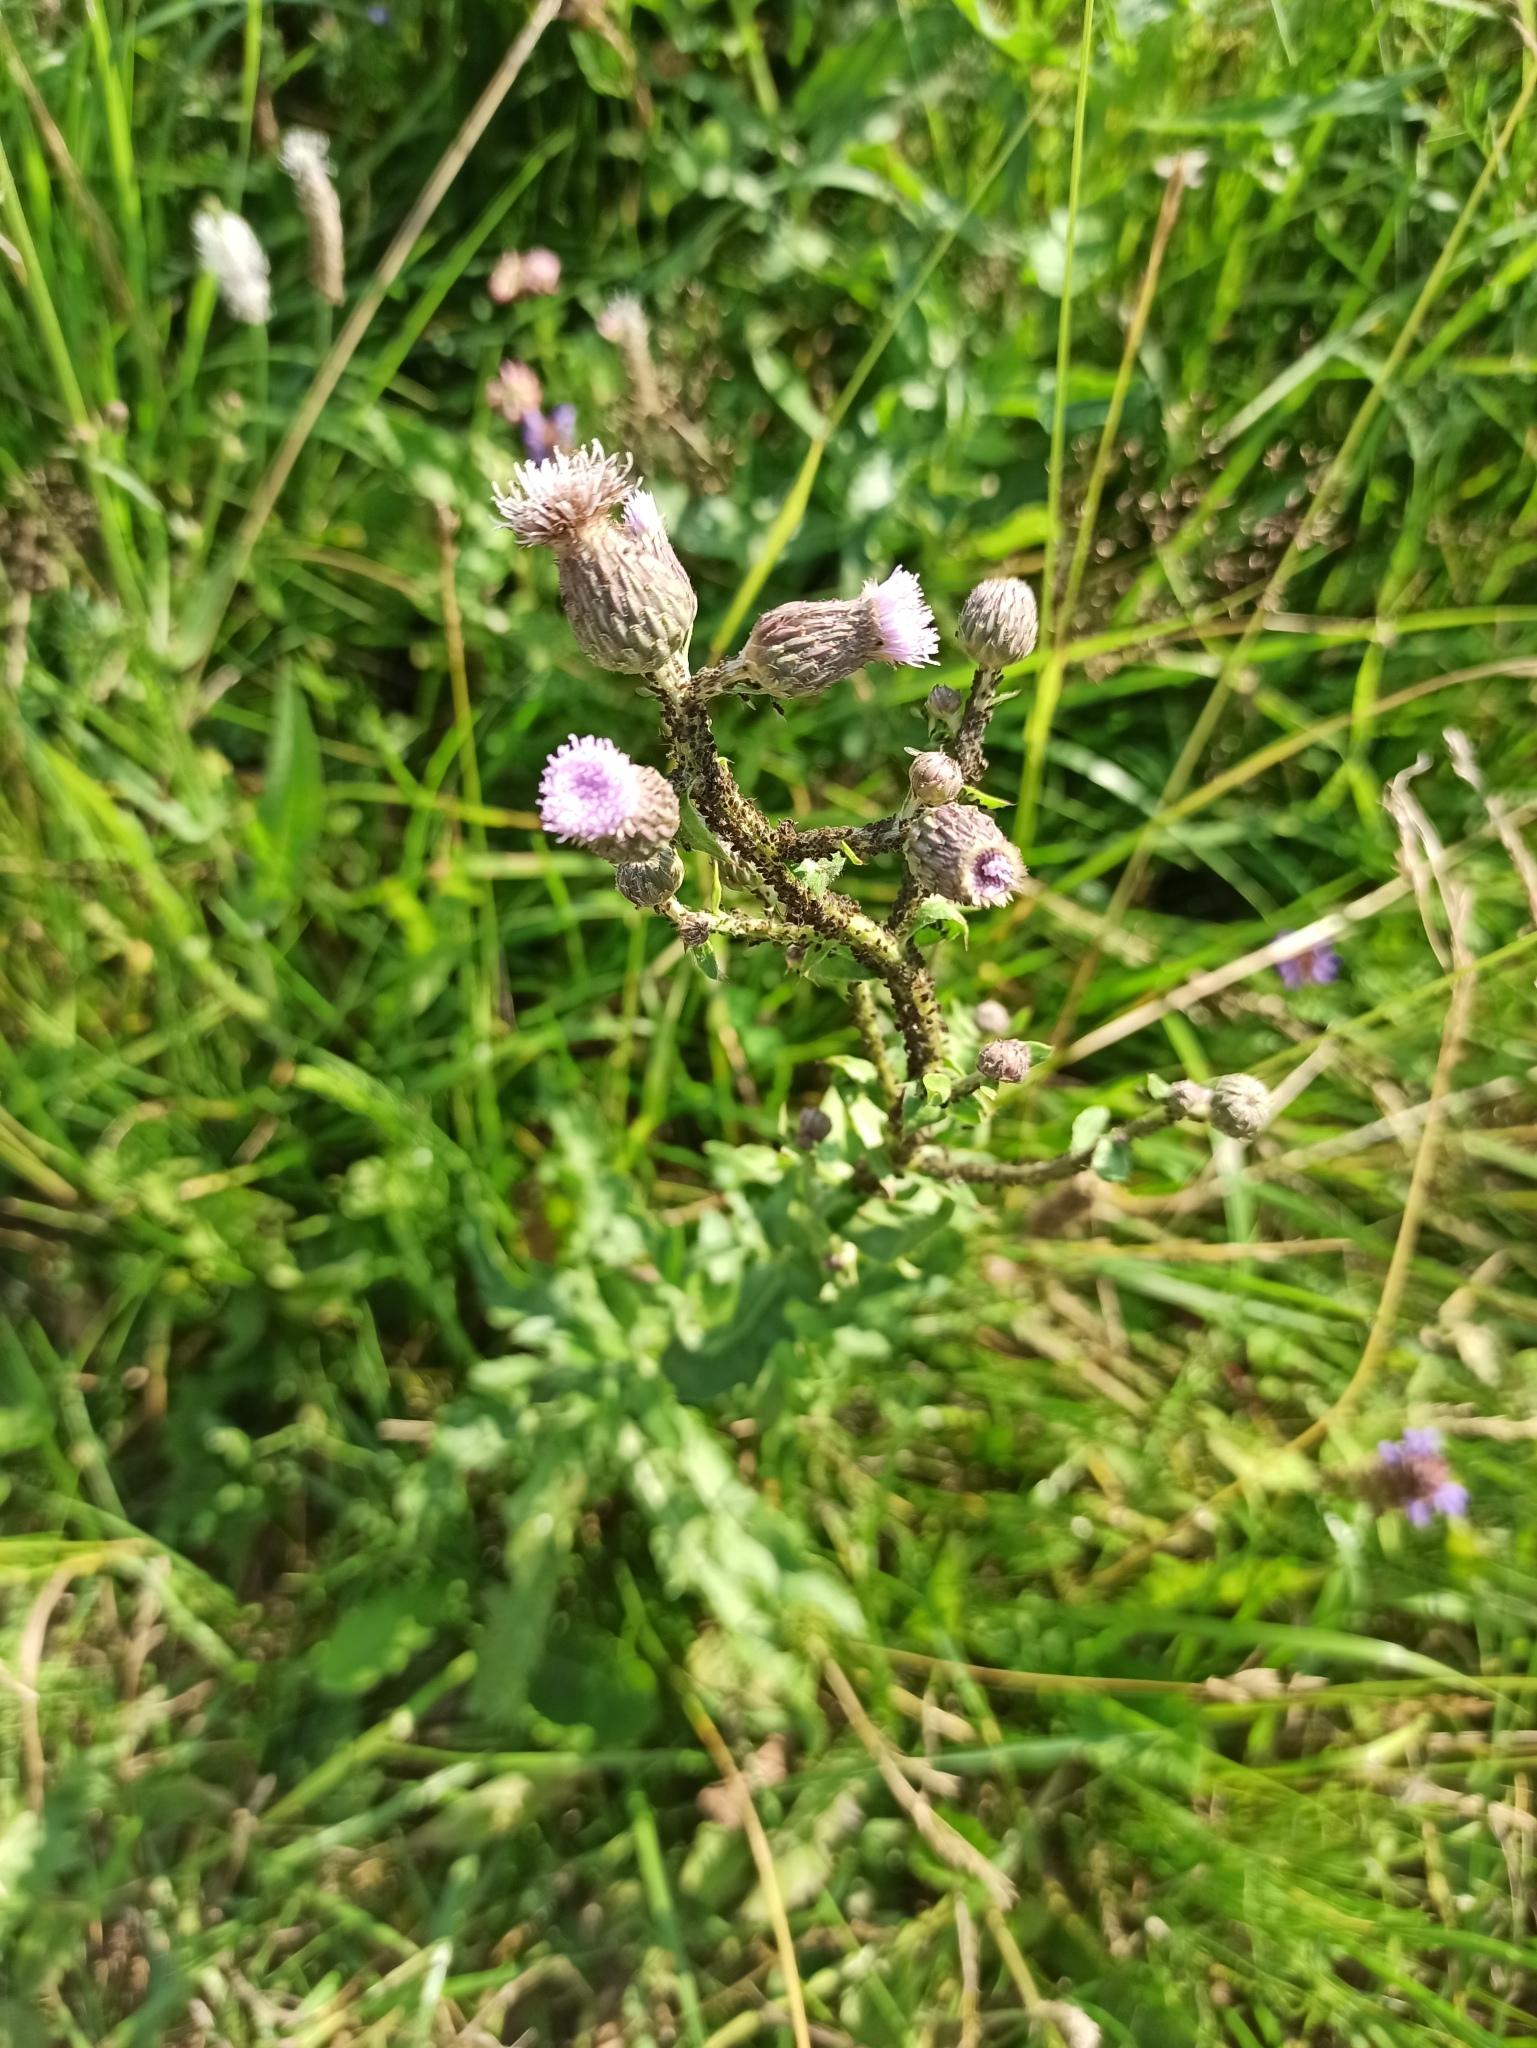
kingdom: Plantae
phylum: Tracheophyta
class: Magnoliopsida
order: Asterales
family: Asteraceae
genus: Cirsium
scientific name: Cirsium arvense
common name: Creeping thistle
